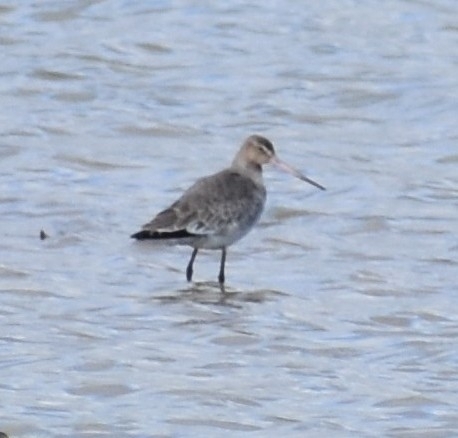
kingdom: Animalia
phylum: Chordata
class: Aves
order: Charadriiformes
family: Scolopacidae
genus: Limosa
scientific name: Limosa limosa
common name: Black-tailed godwit
